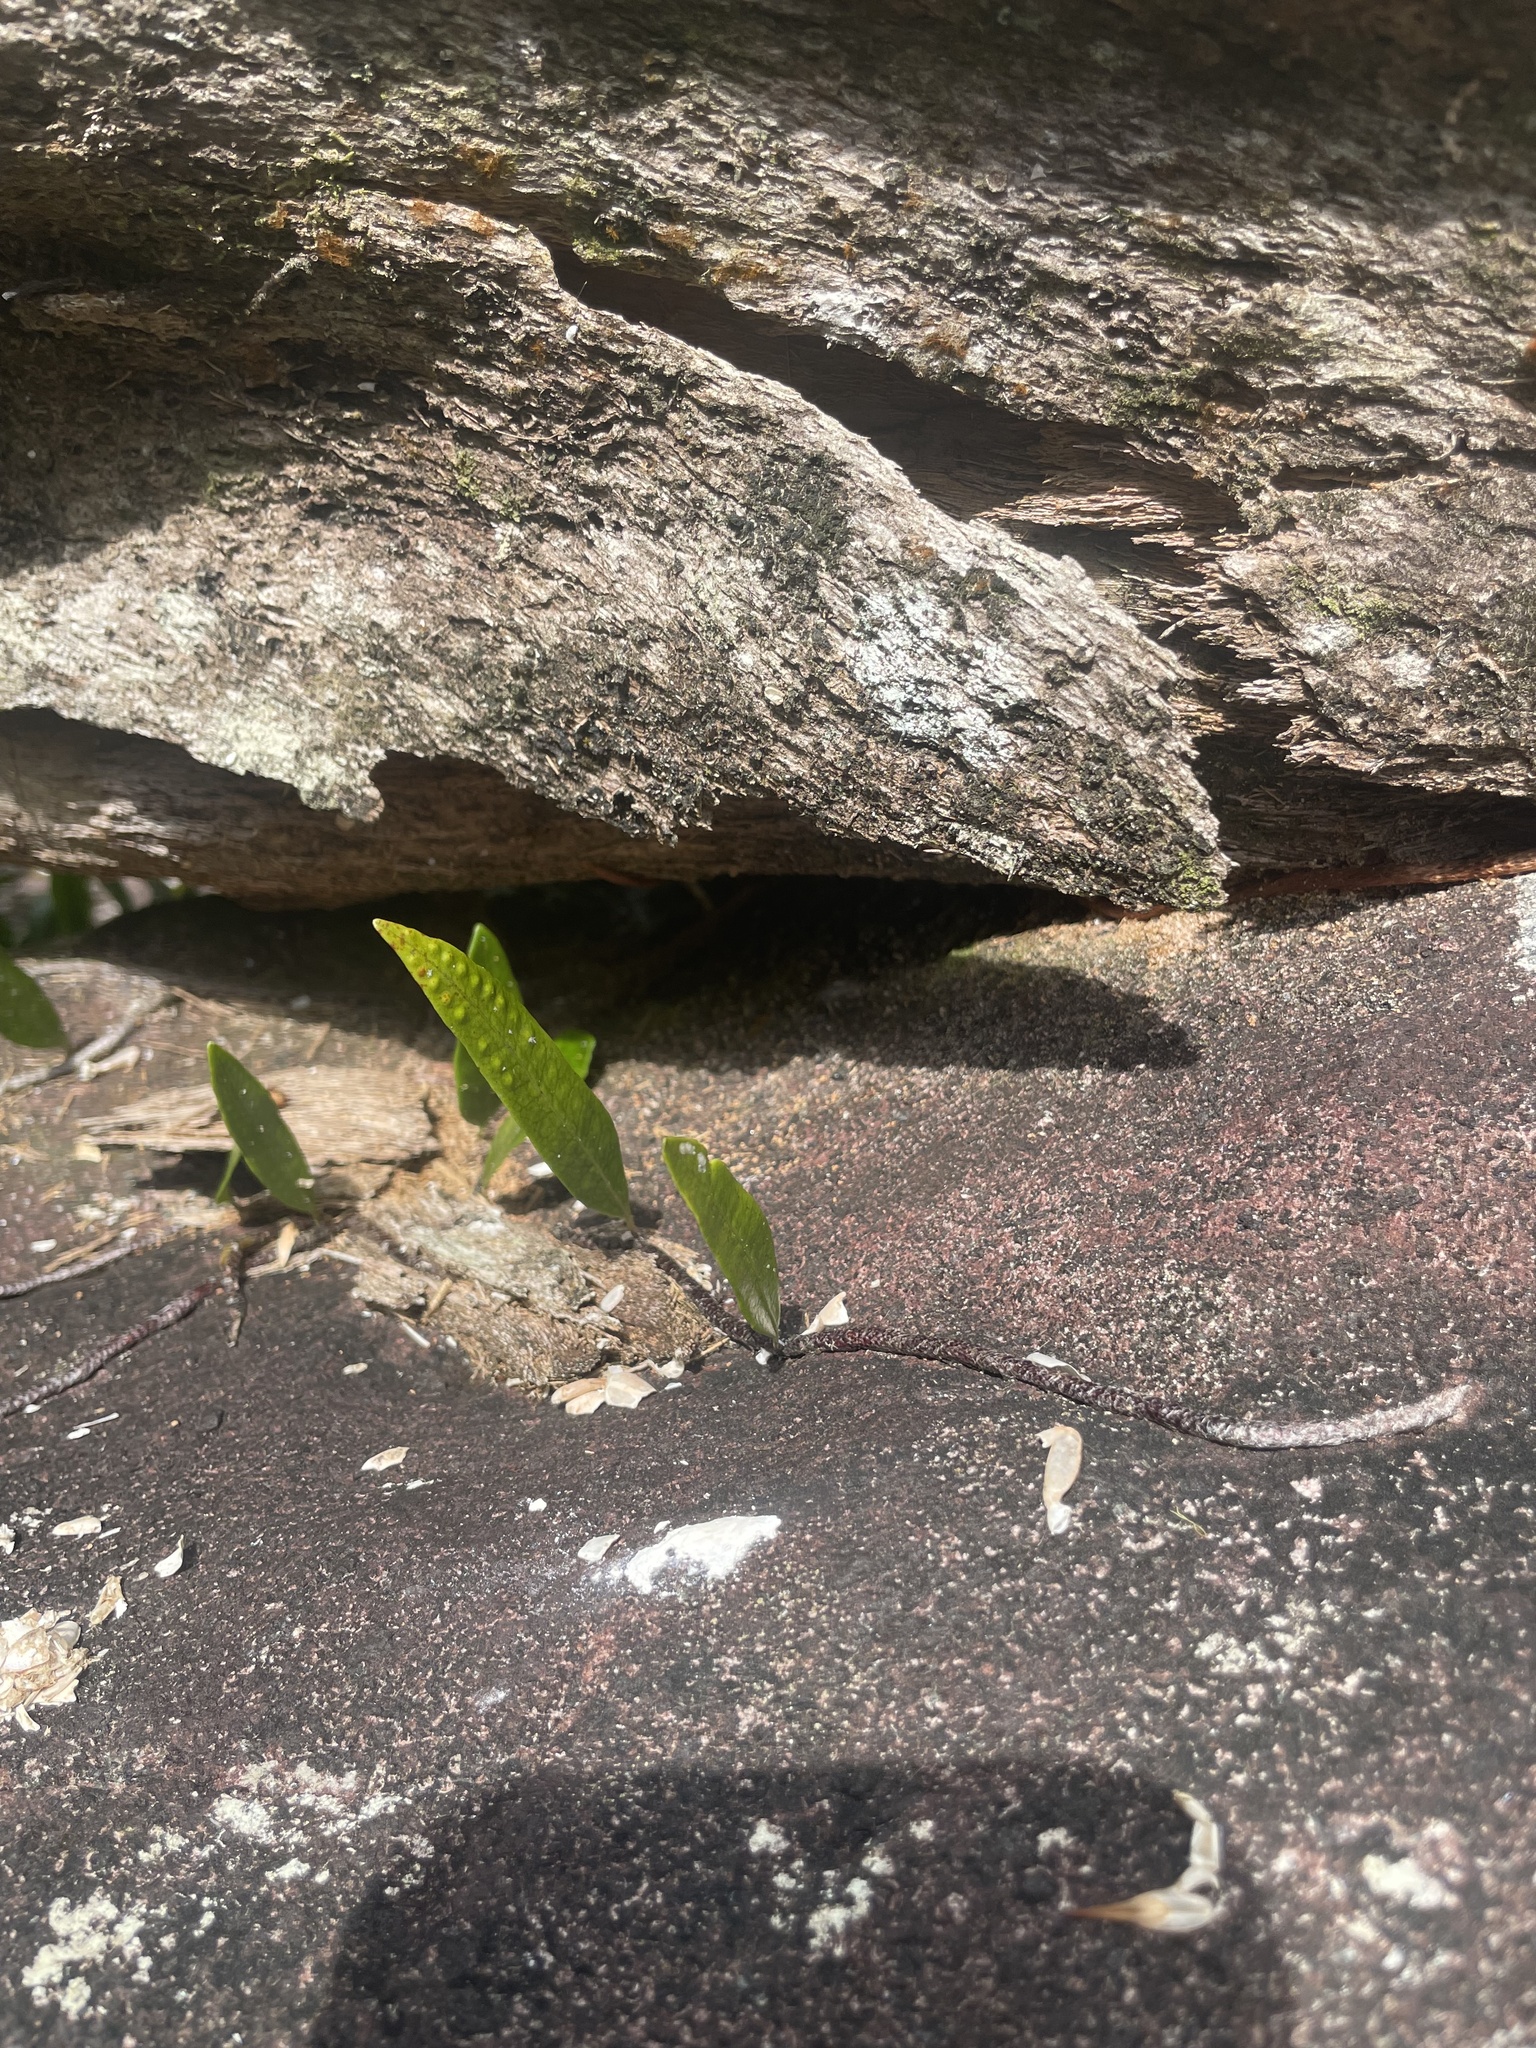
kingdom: Plantae
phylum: Tracheophyta
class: Polypodiopsida
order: Polypodiales
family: Polypodiaceae
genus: Microgramma
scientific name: Microgramma lycopodioides
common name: Bastard catclaw
